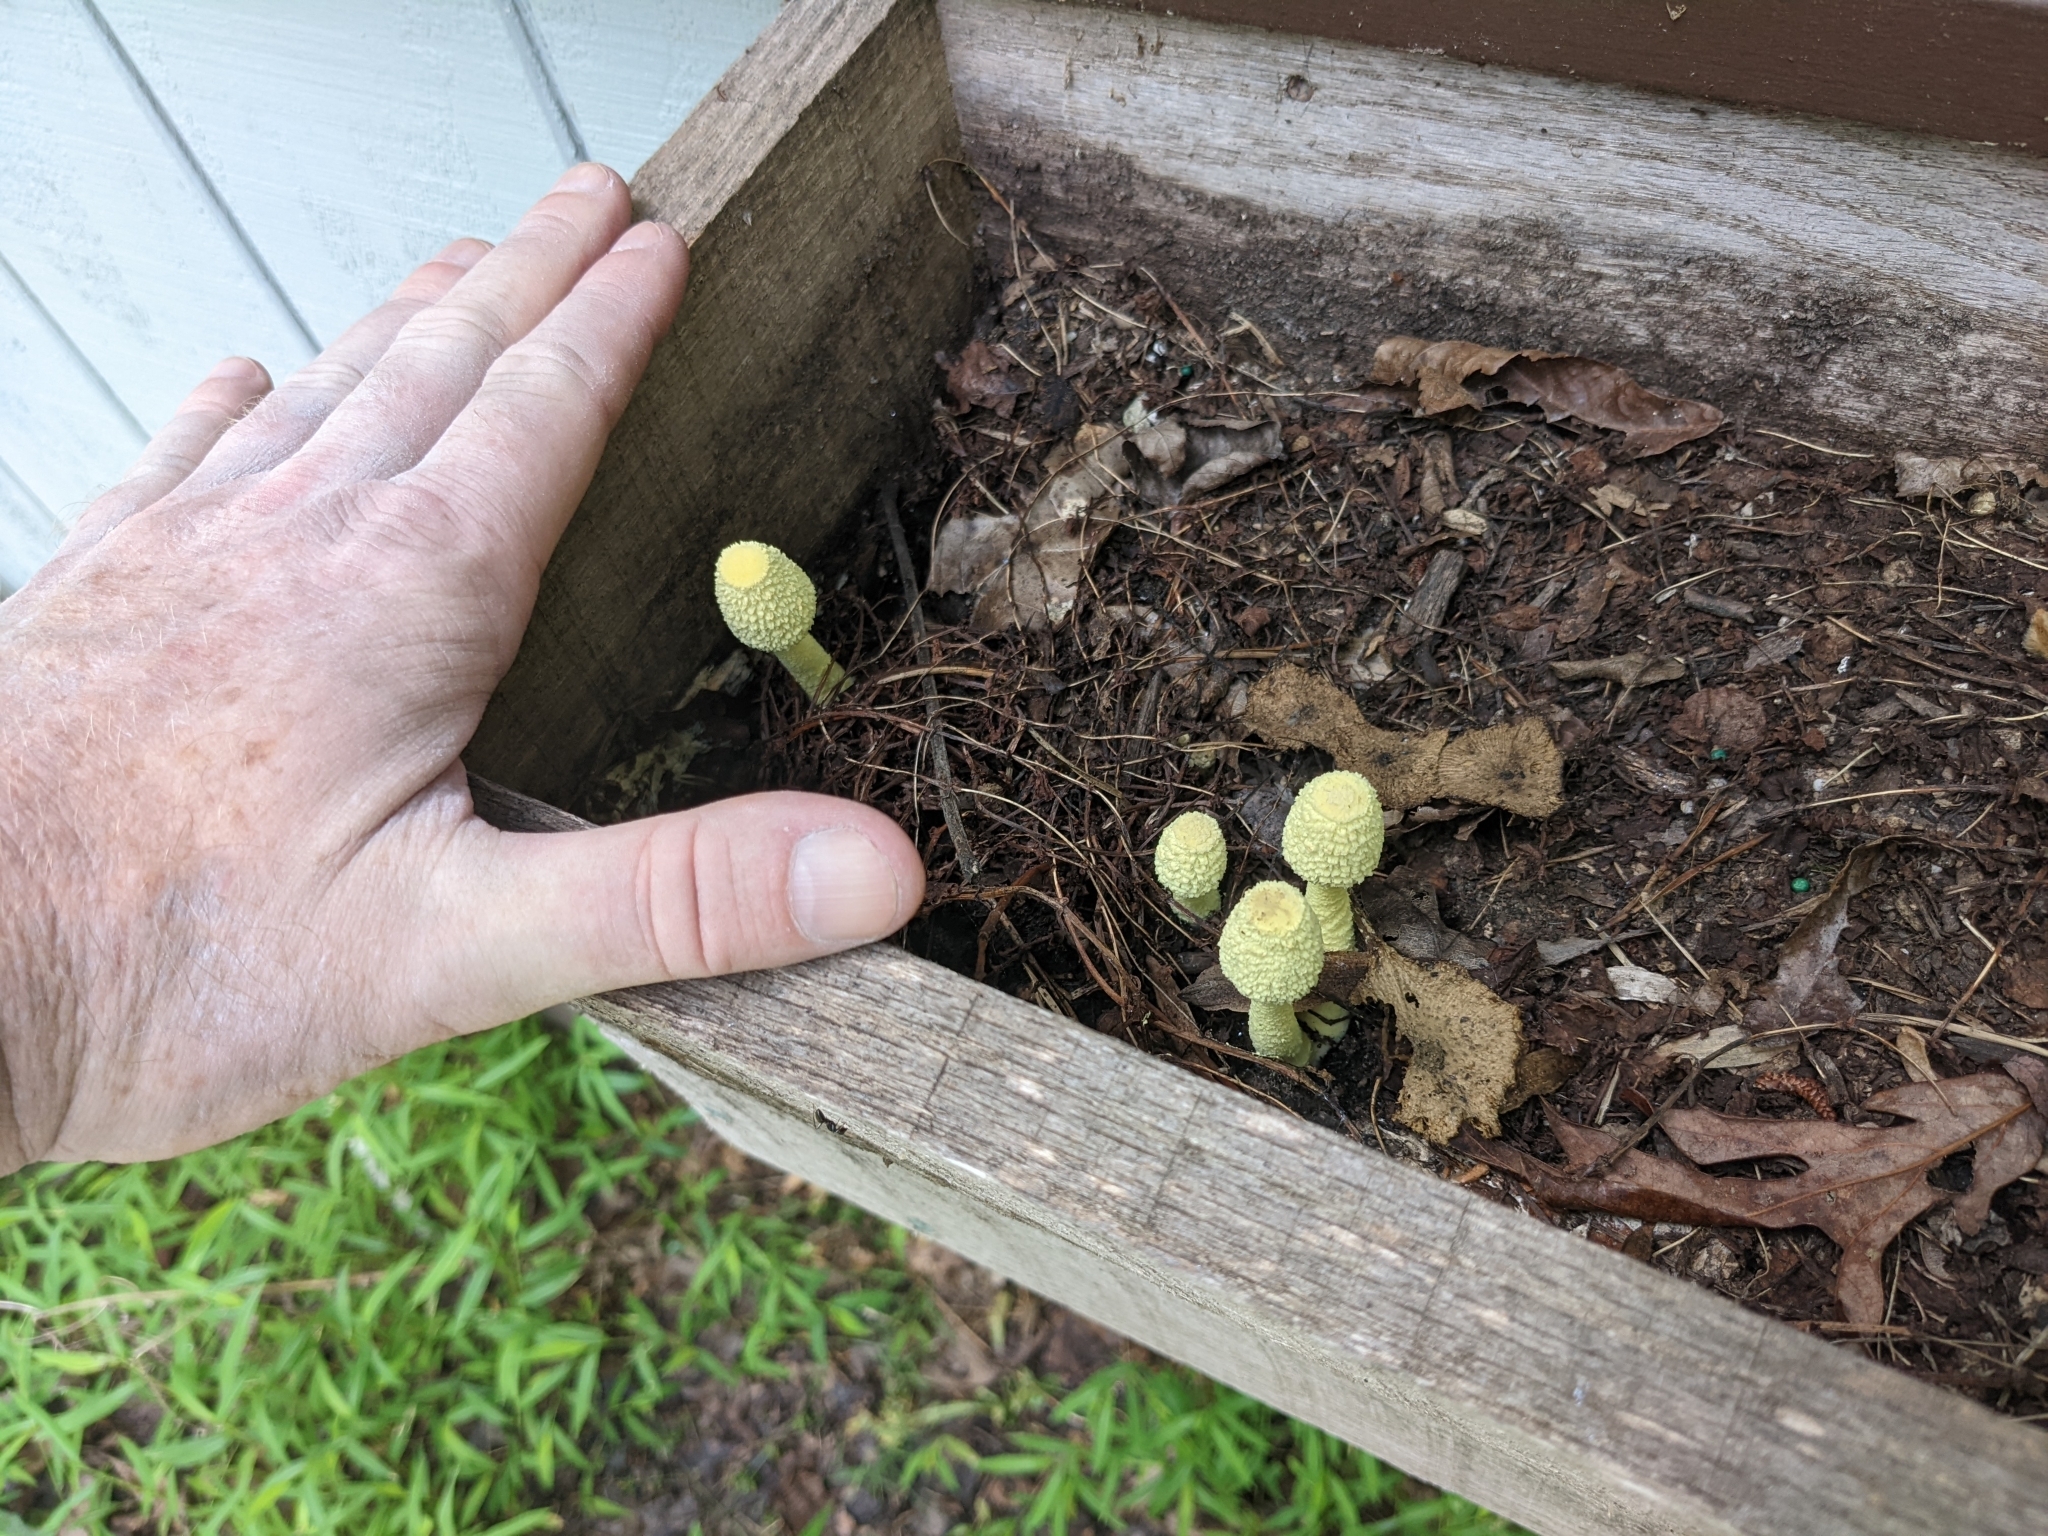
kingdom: Fungi
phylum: Basidiomycota
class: Agaricomycetes
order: Agaricales
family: Agaricaceae
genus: Leucocoprinus
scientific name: Leucocoprinus birnbaumii
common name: Plantpot dapperling
